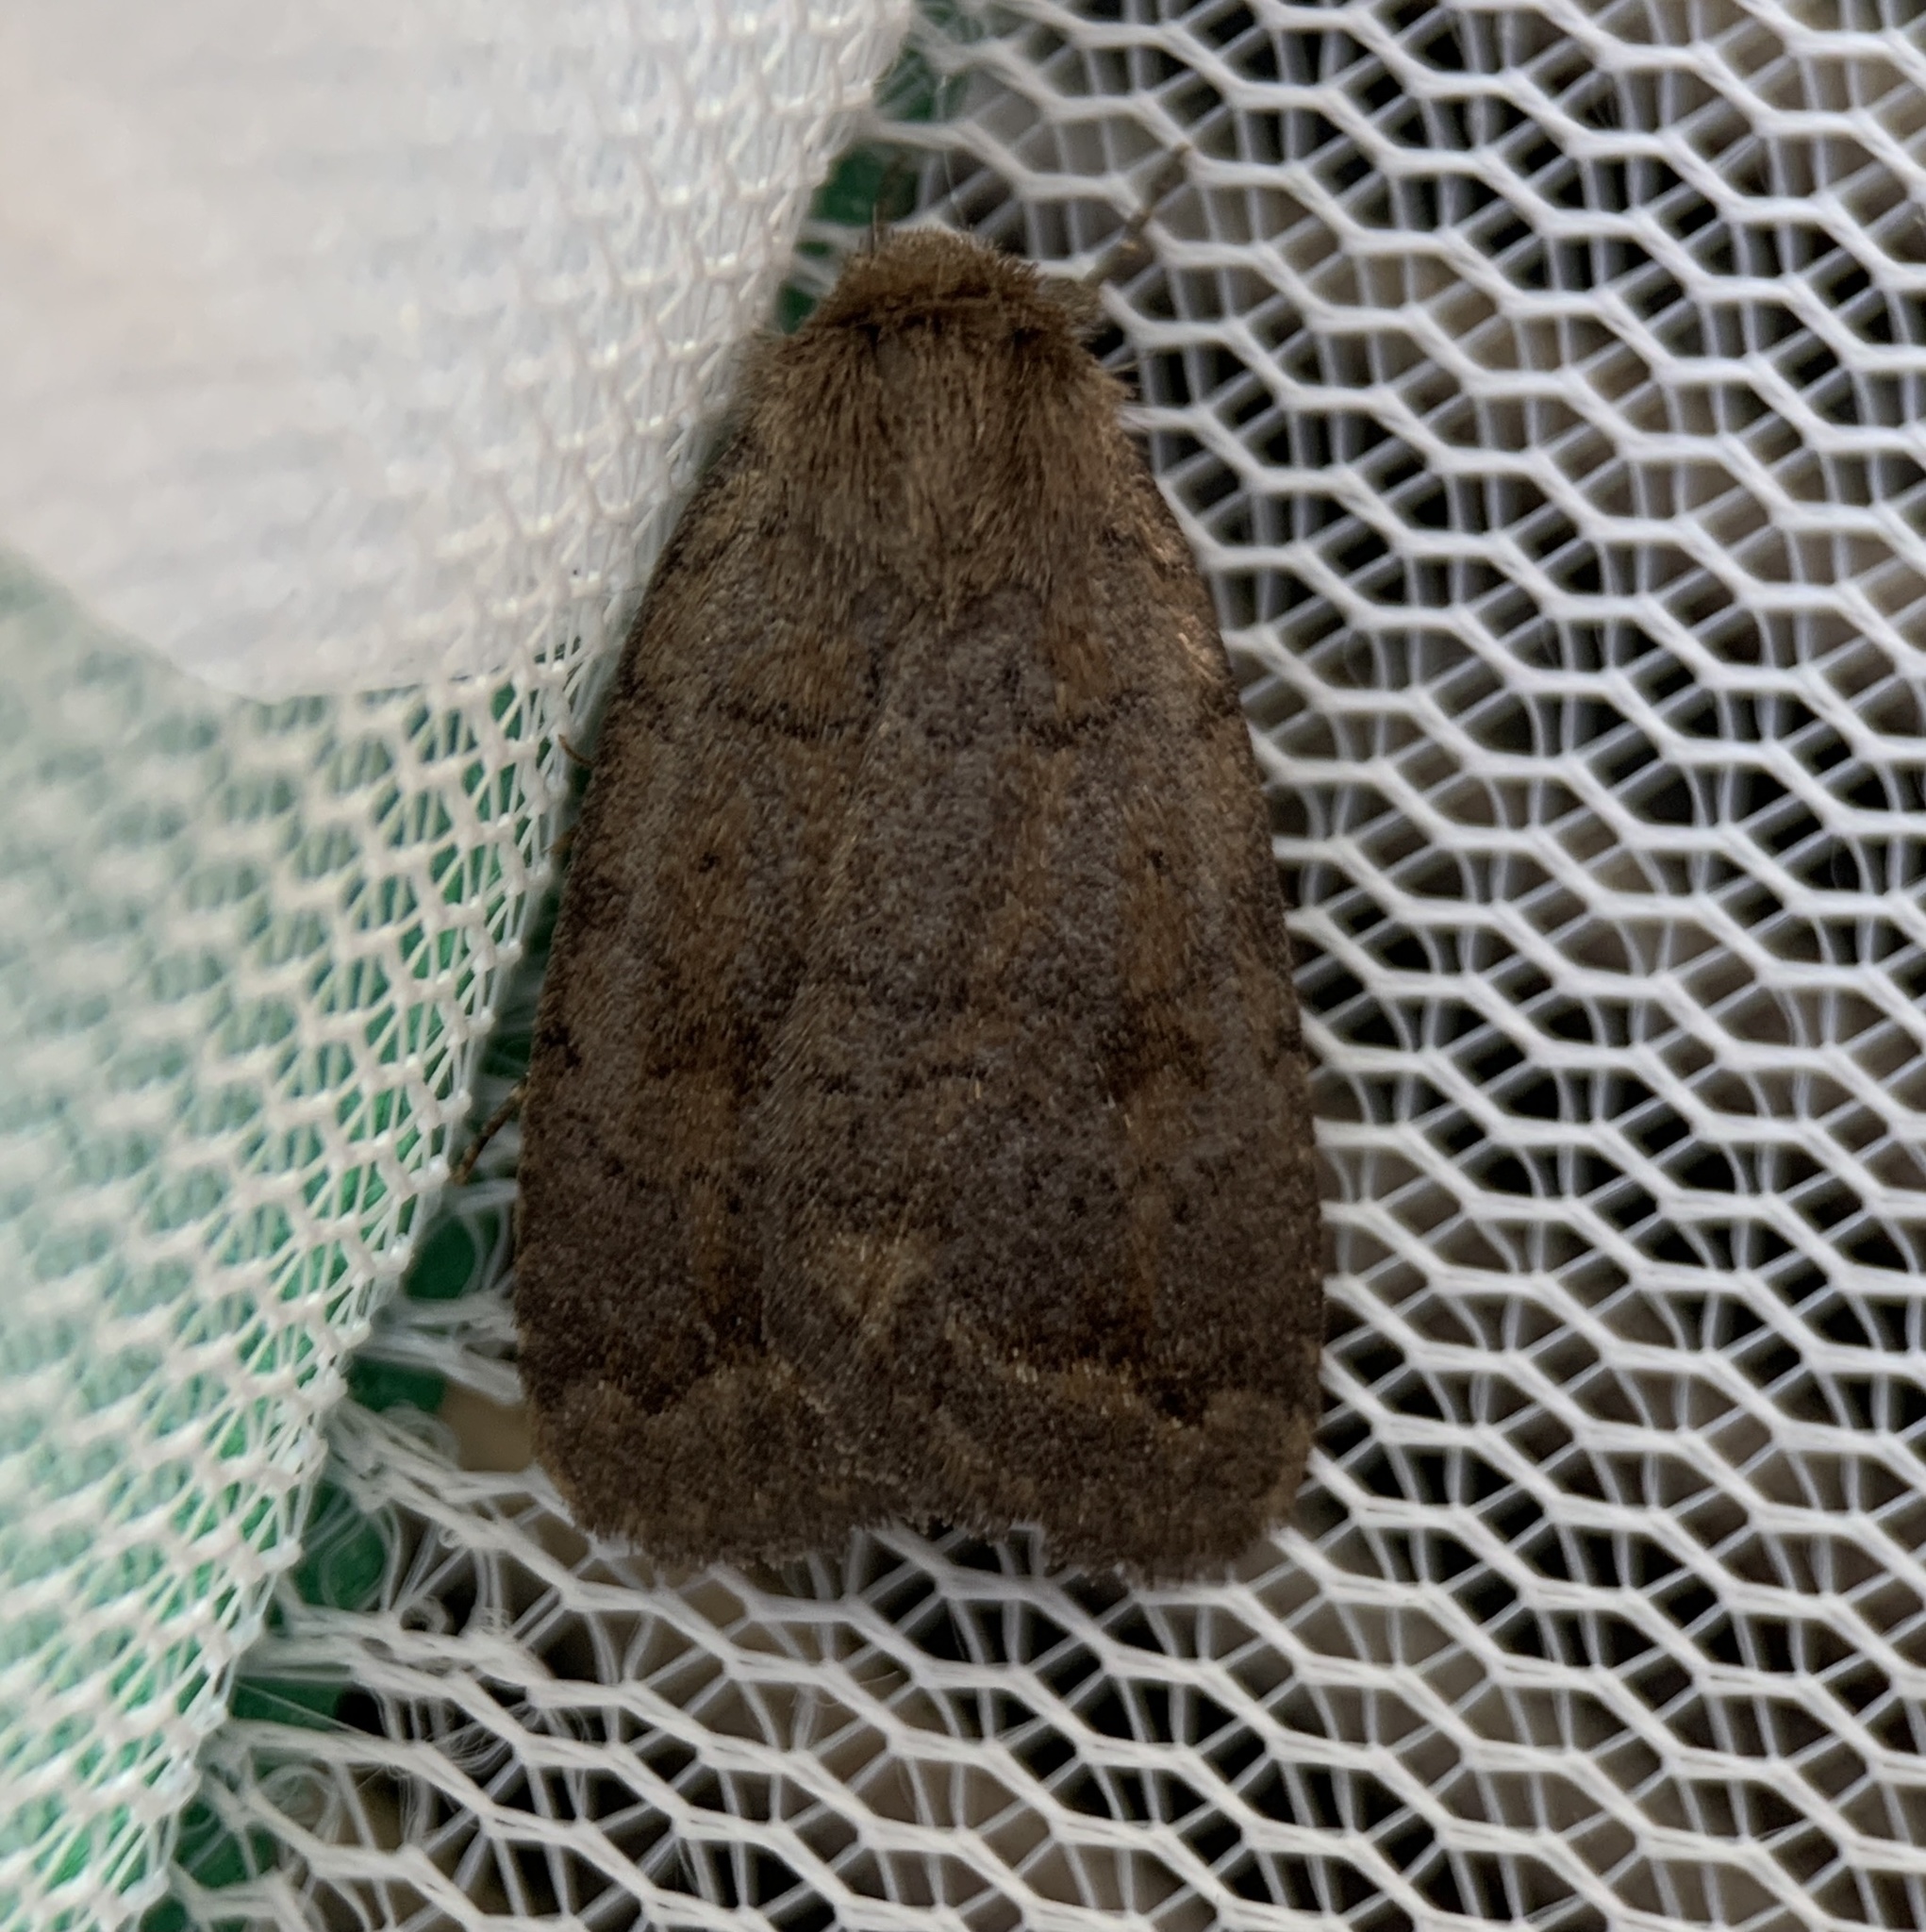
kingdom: Animalia
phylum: Arthropoda
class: Insecta
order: Lepidoptera
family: Noctuidae
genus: Athetis
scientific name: Athetis tarda
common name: Slowpoke moth
